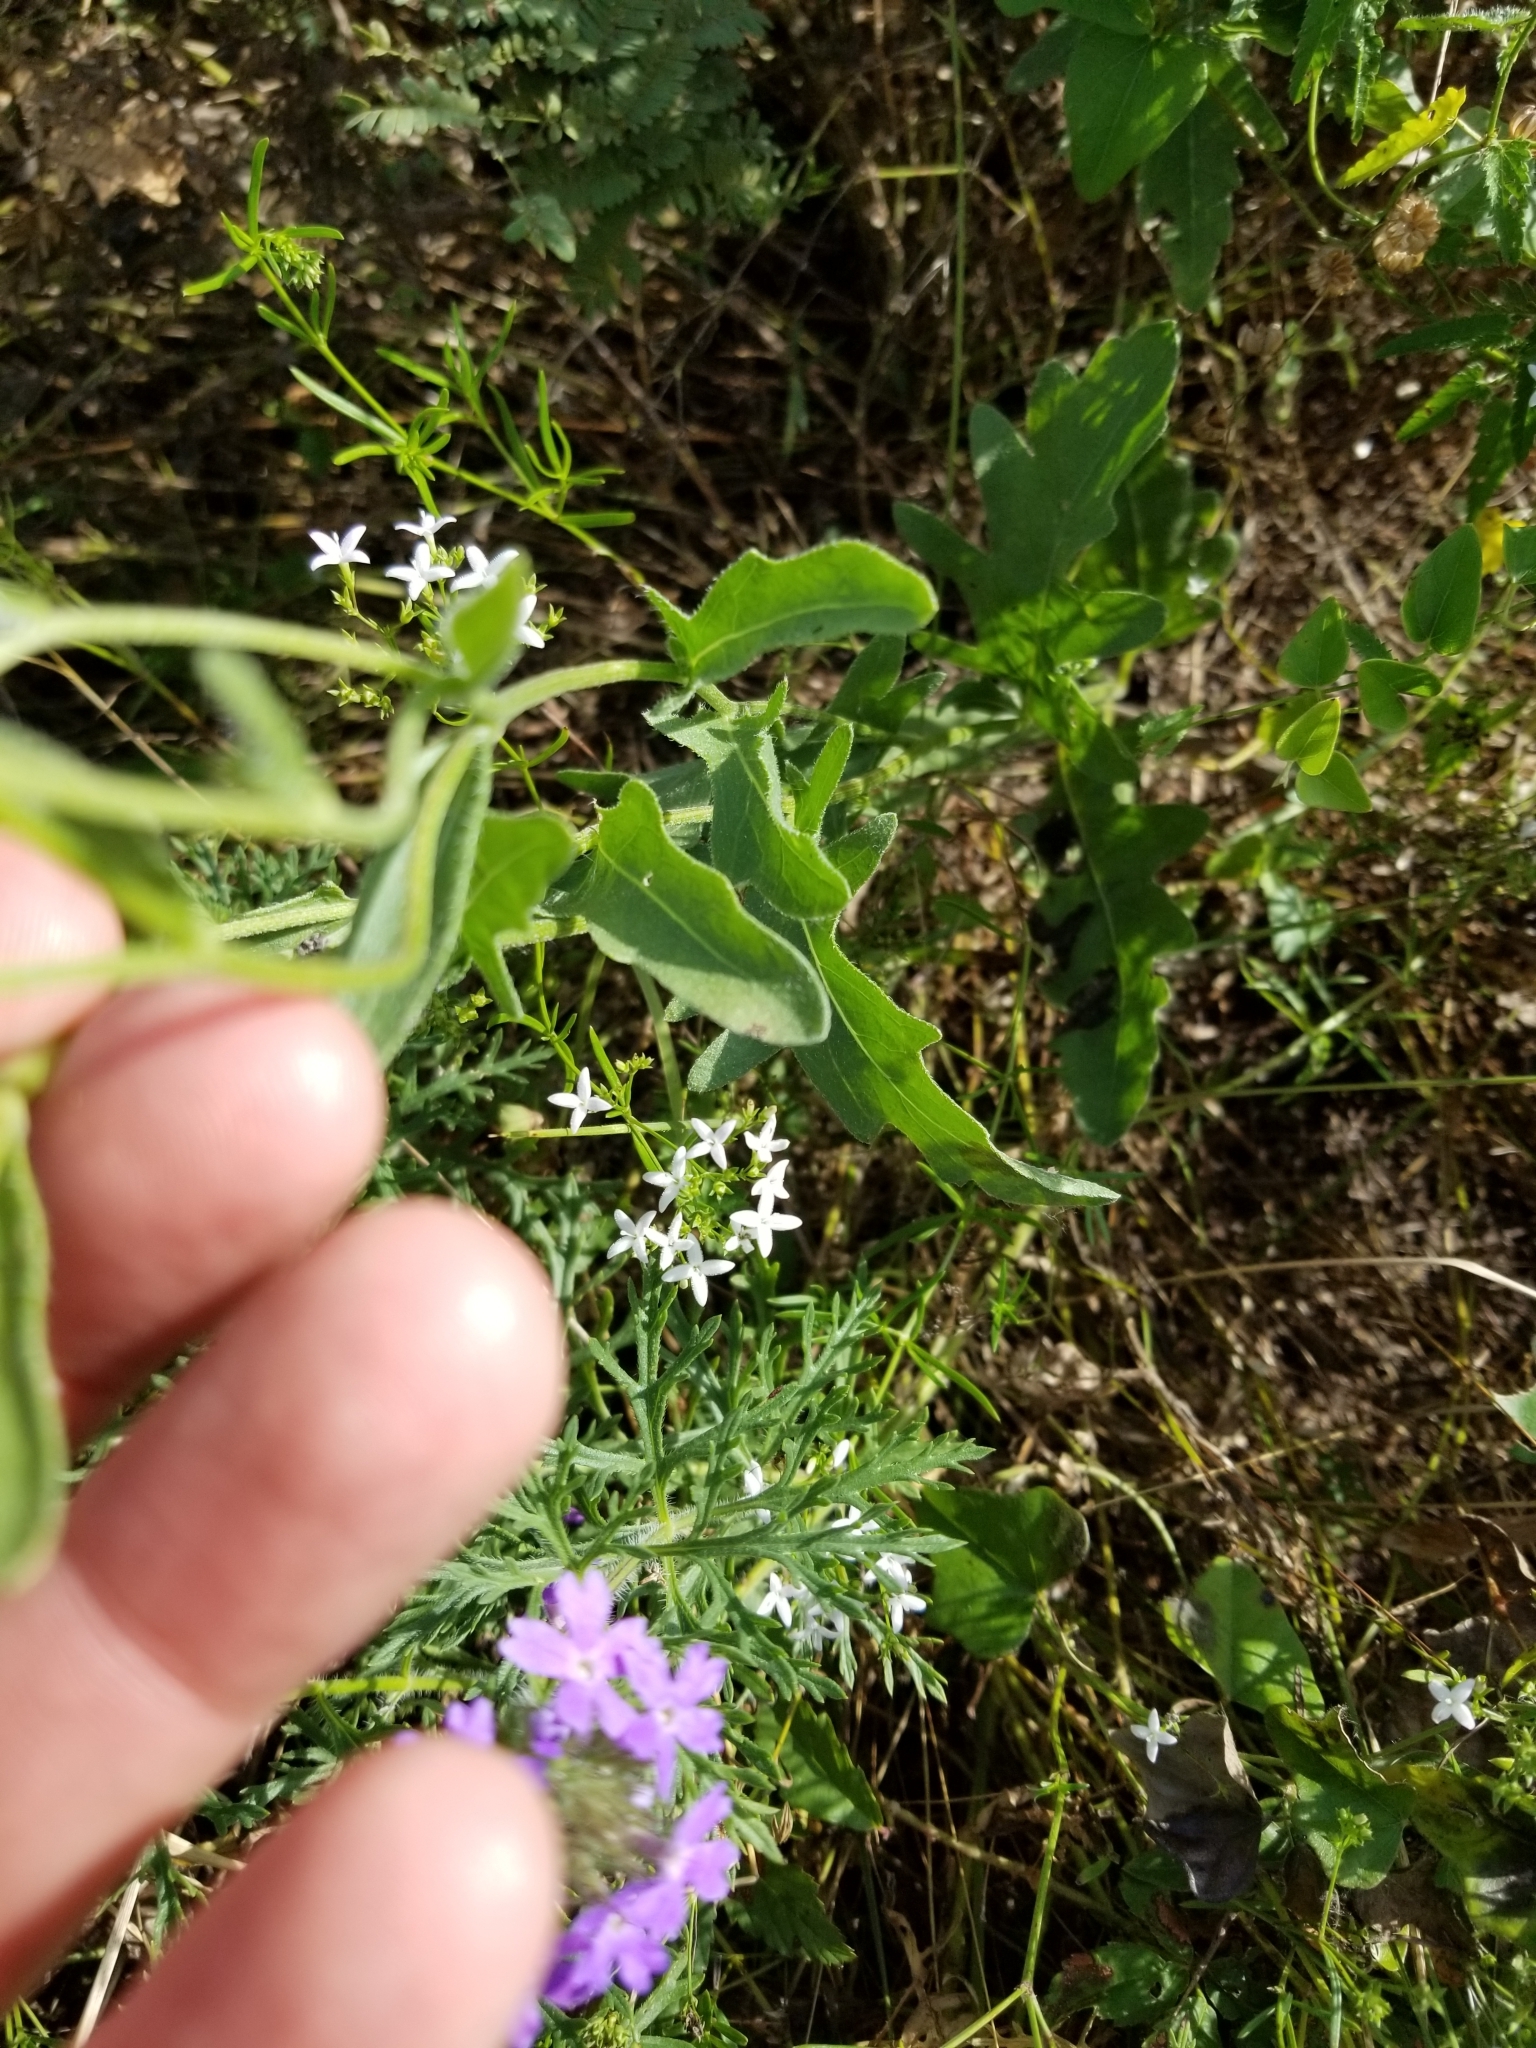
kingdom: Plantae
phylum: Tracheophyta
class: Magnoliopsida
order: Asterales
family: Asteraceae
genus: Engelmannia
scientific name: Engelmannia peristenia
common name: Engelmann's daisy
